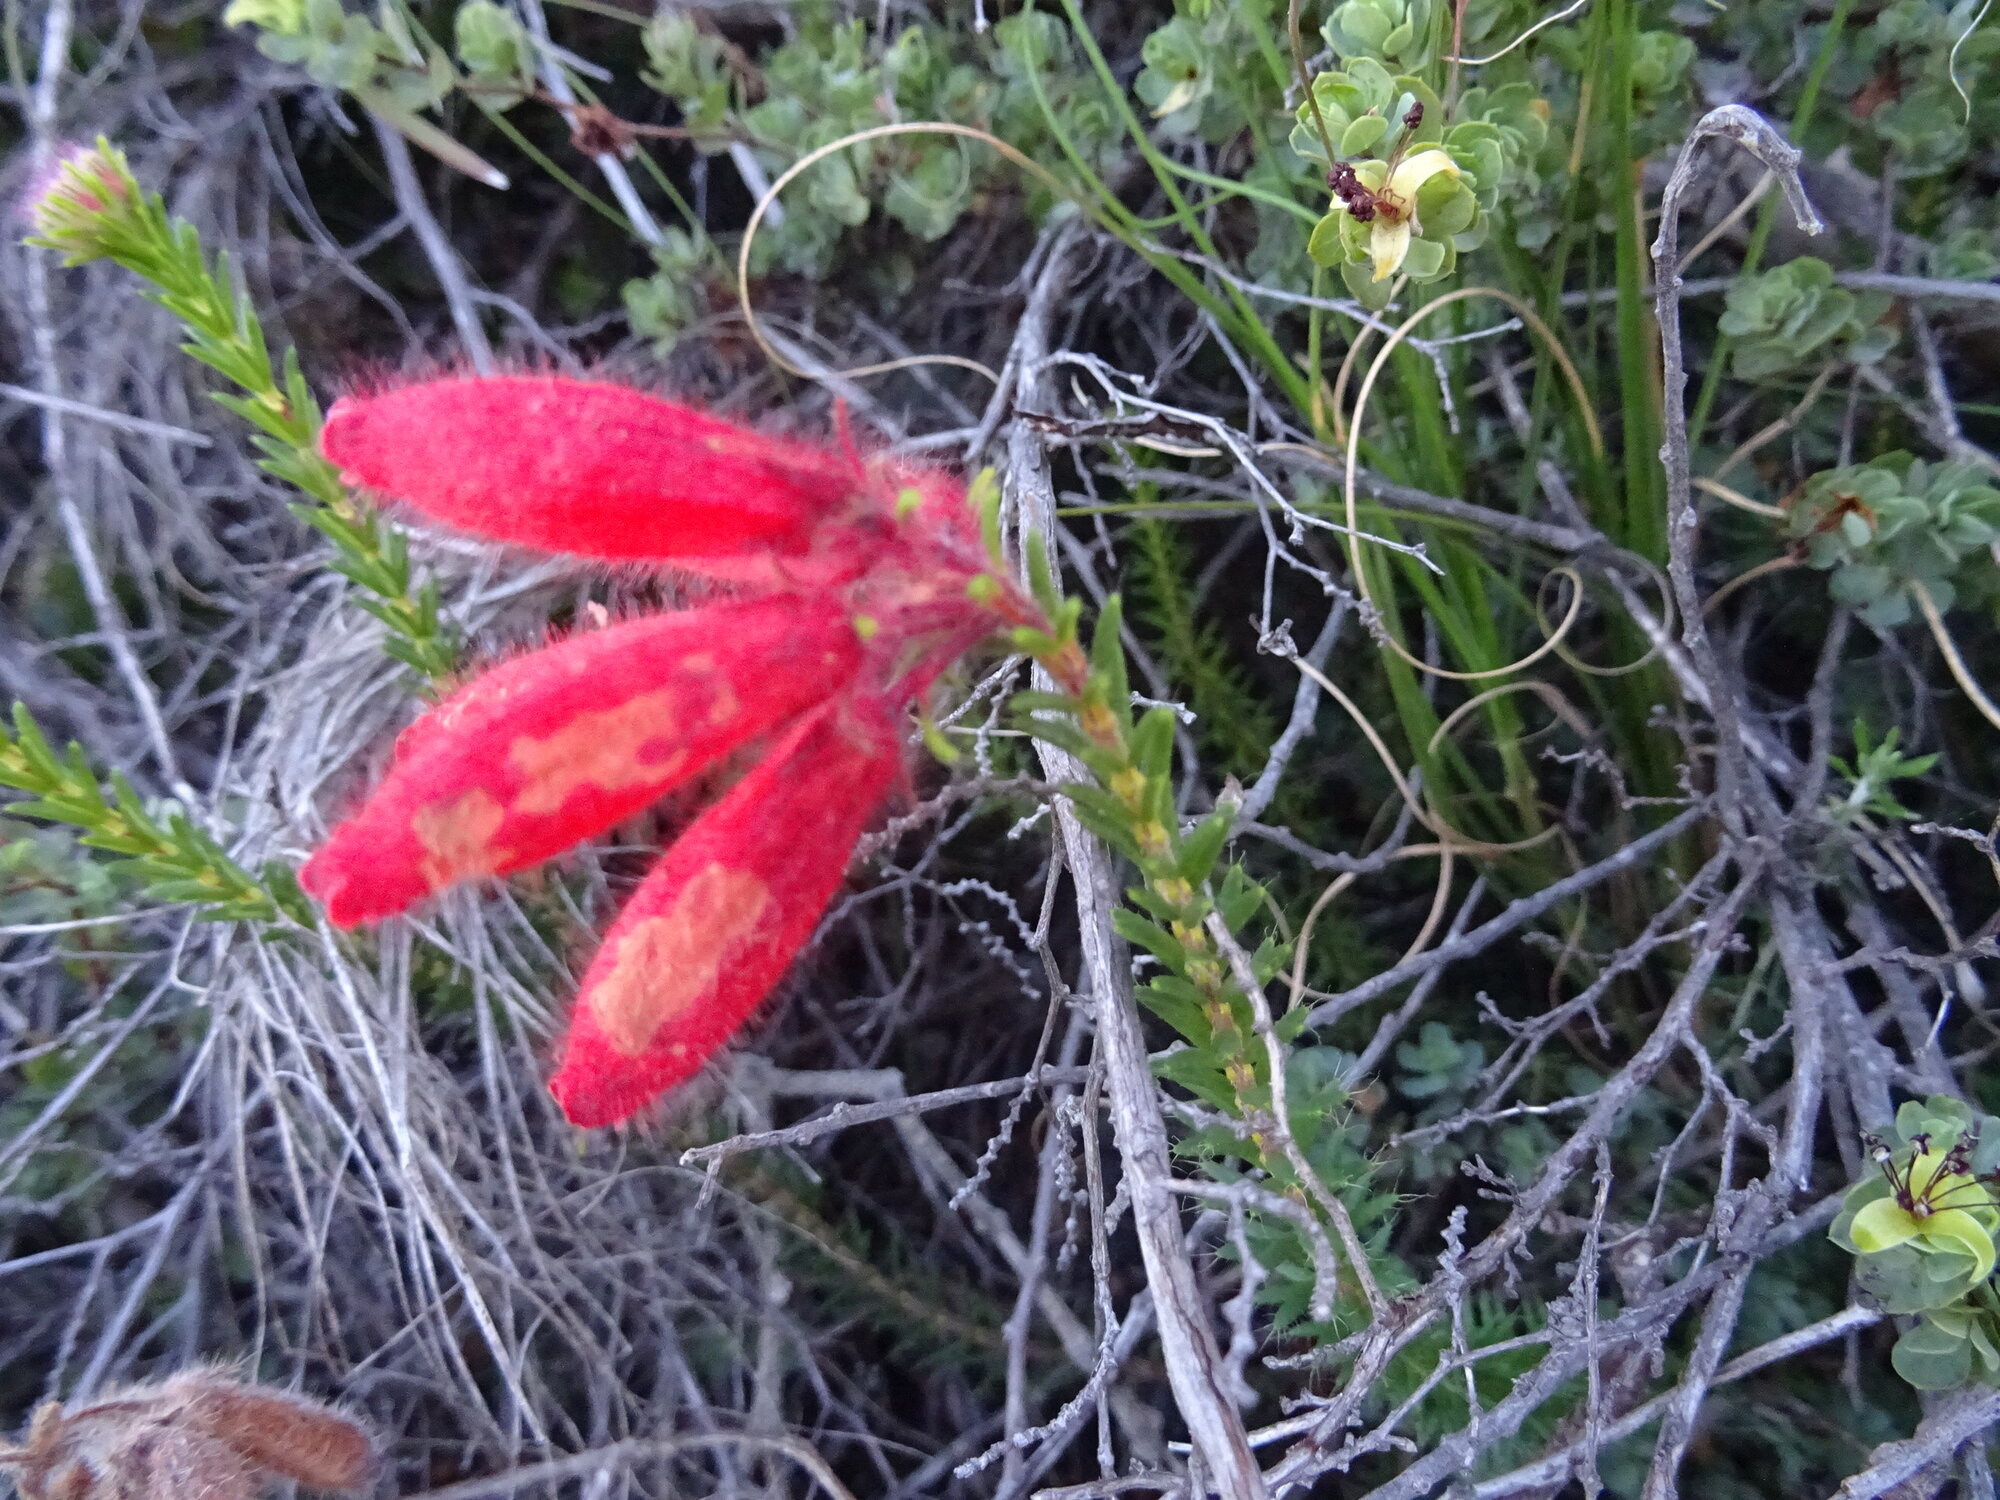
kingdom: Plantae
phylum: Tracheophyta
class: Magnoliopsida
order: Ericales
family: Ericaceae
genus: Erica
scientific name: Erica cerinthoides
